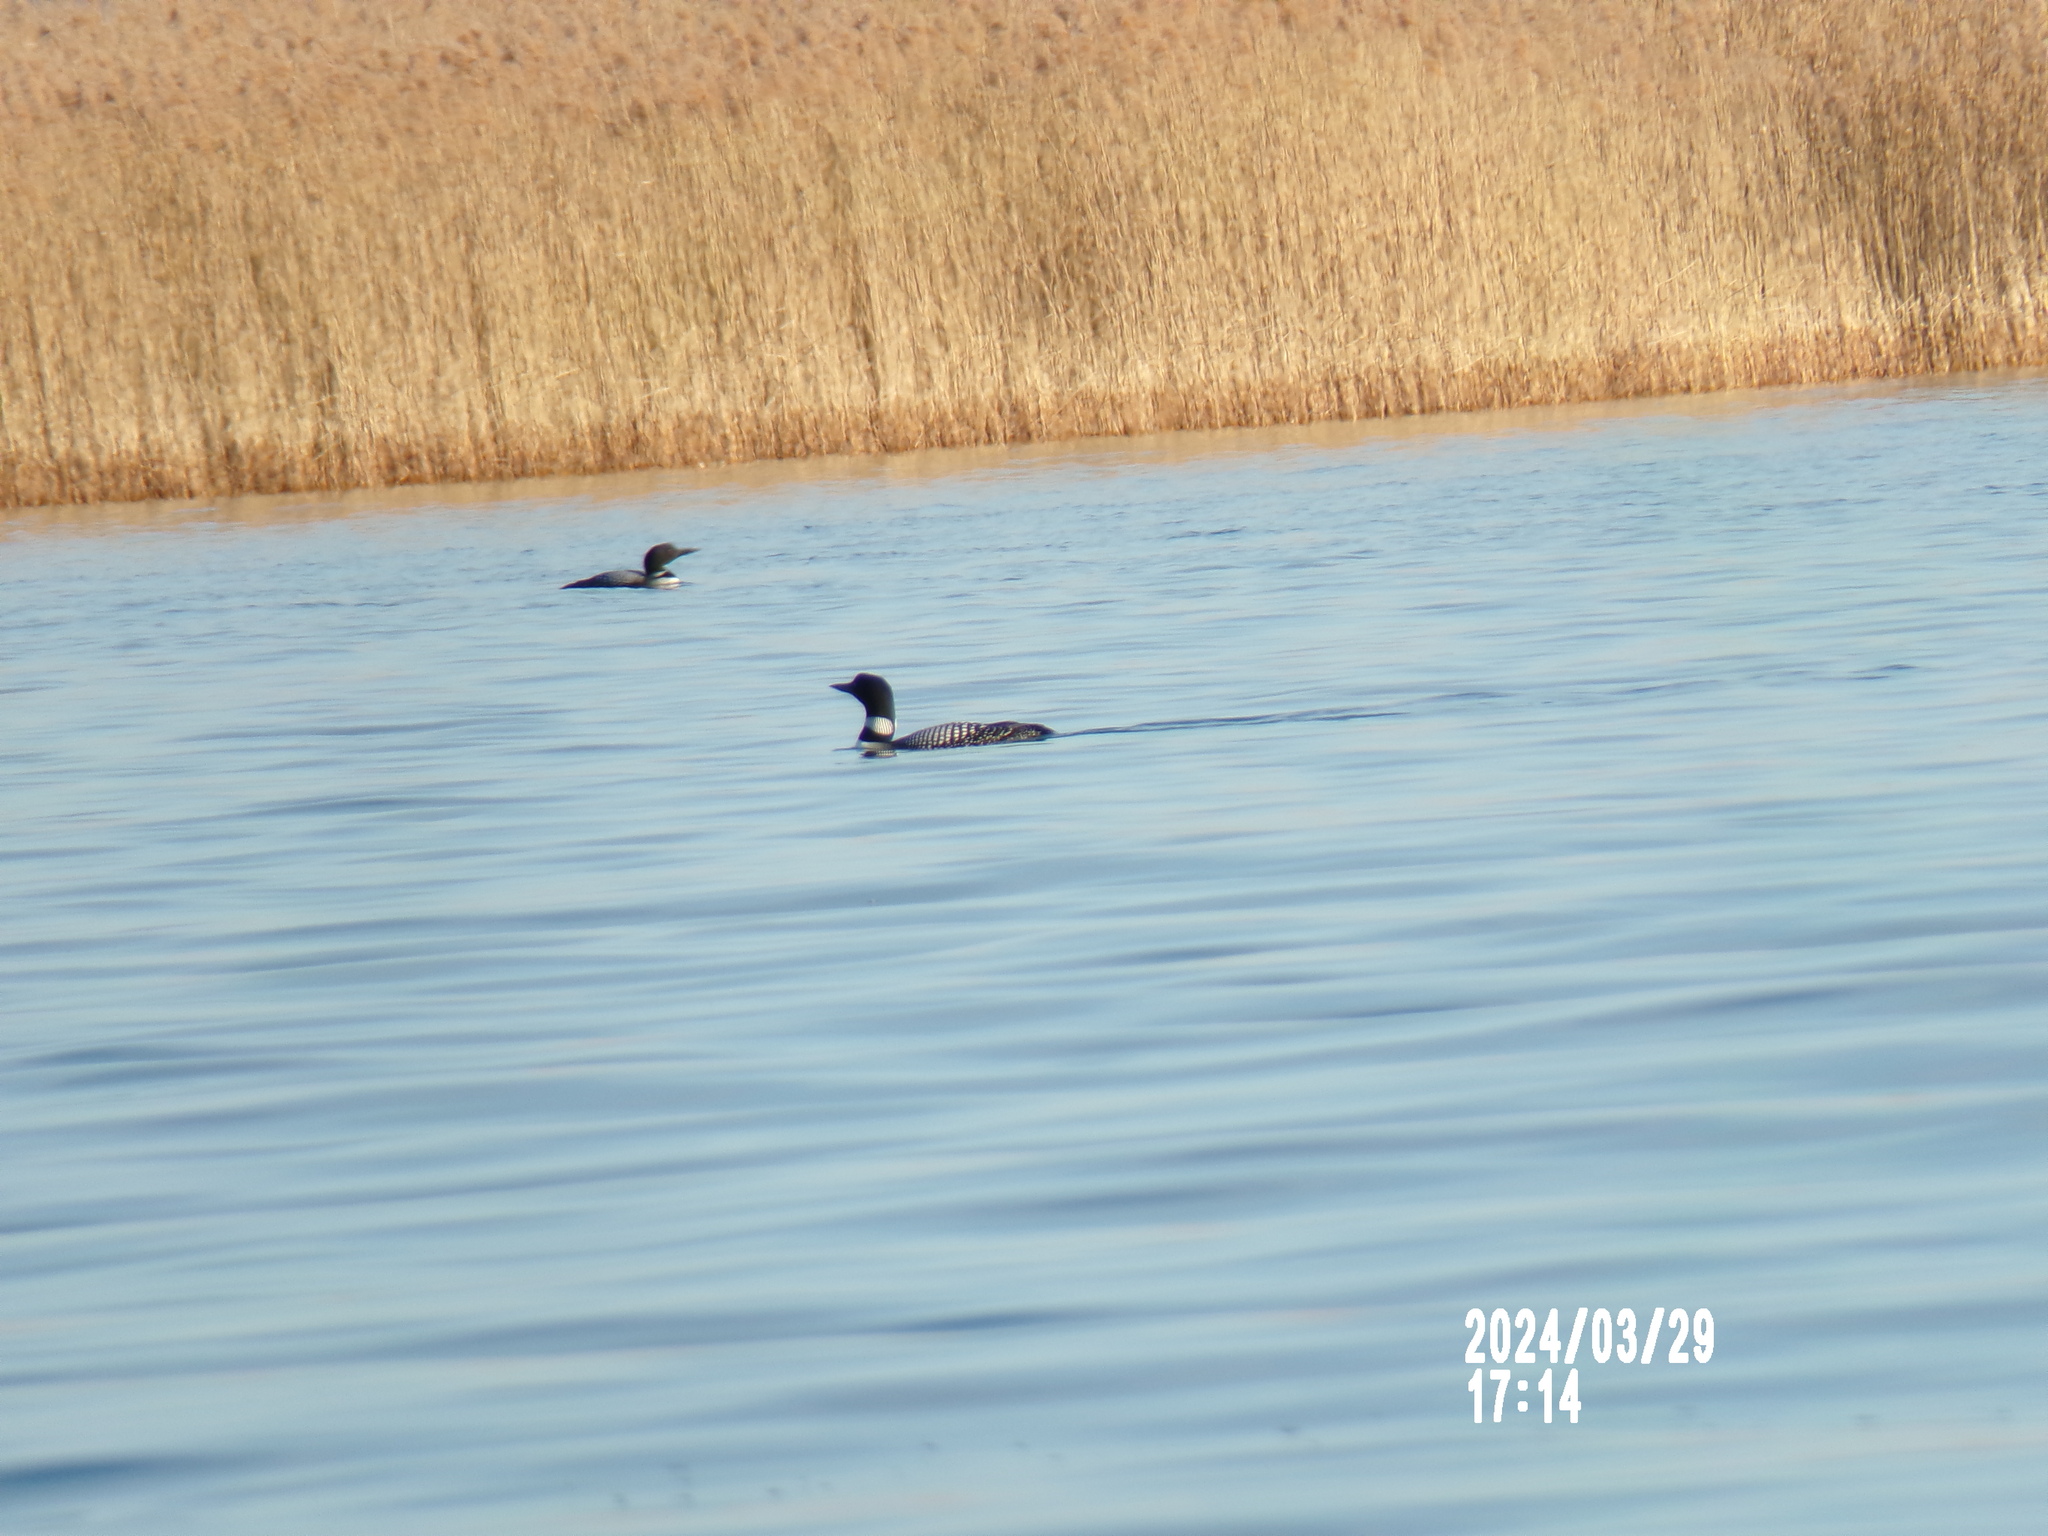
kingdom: Animalia
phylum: Chordata
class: Aves
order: Gaviiformes
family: Gaviidae
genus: Gavia
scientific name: Gavia immer
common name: Common loon
